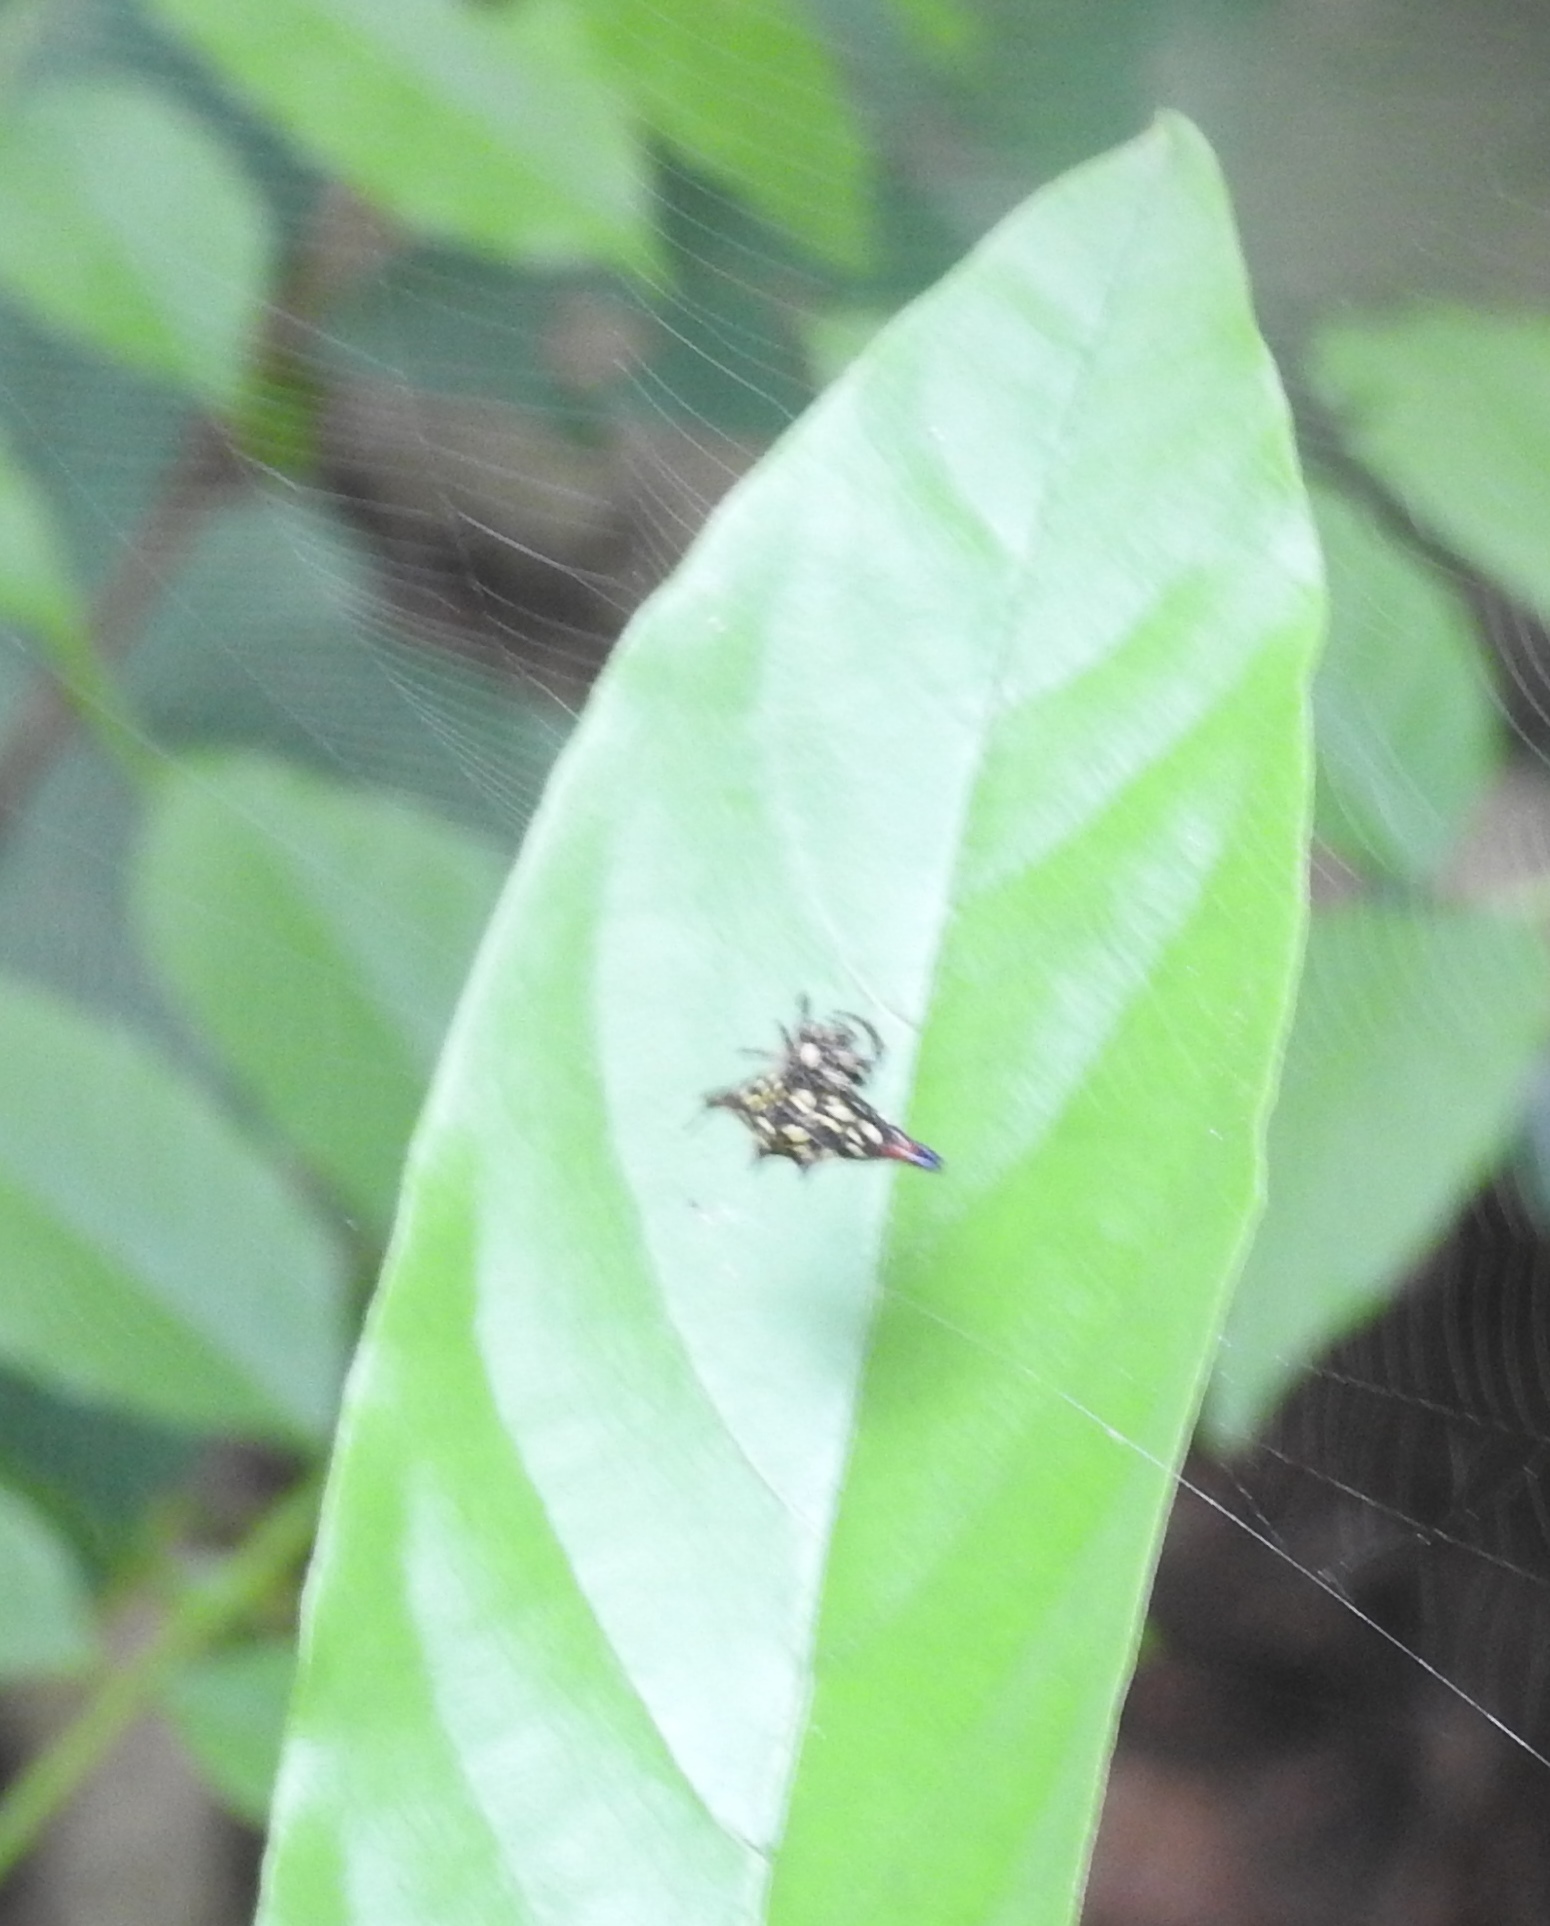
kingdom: Animalia
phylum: Arthropoda
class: Arachnida
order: Araneae
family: Araneidae
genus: Gasteracantha
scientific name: Gasteracantha geminata
